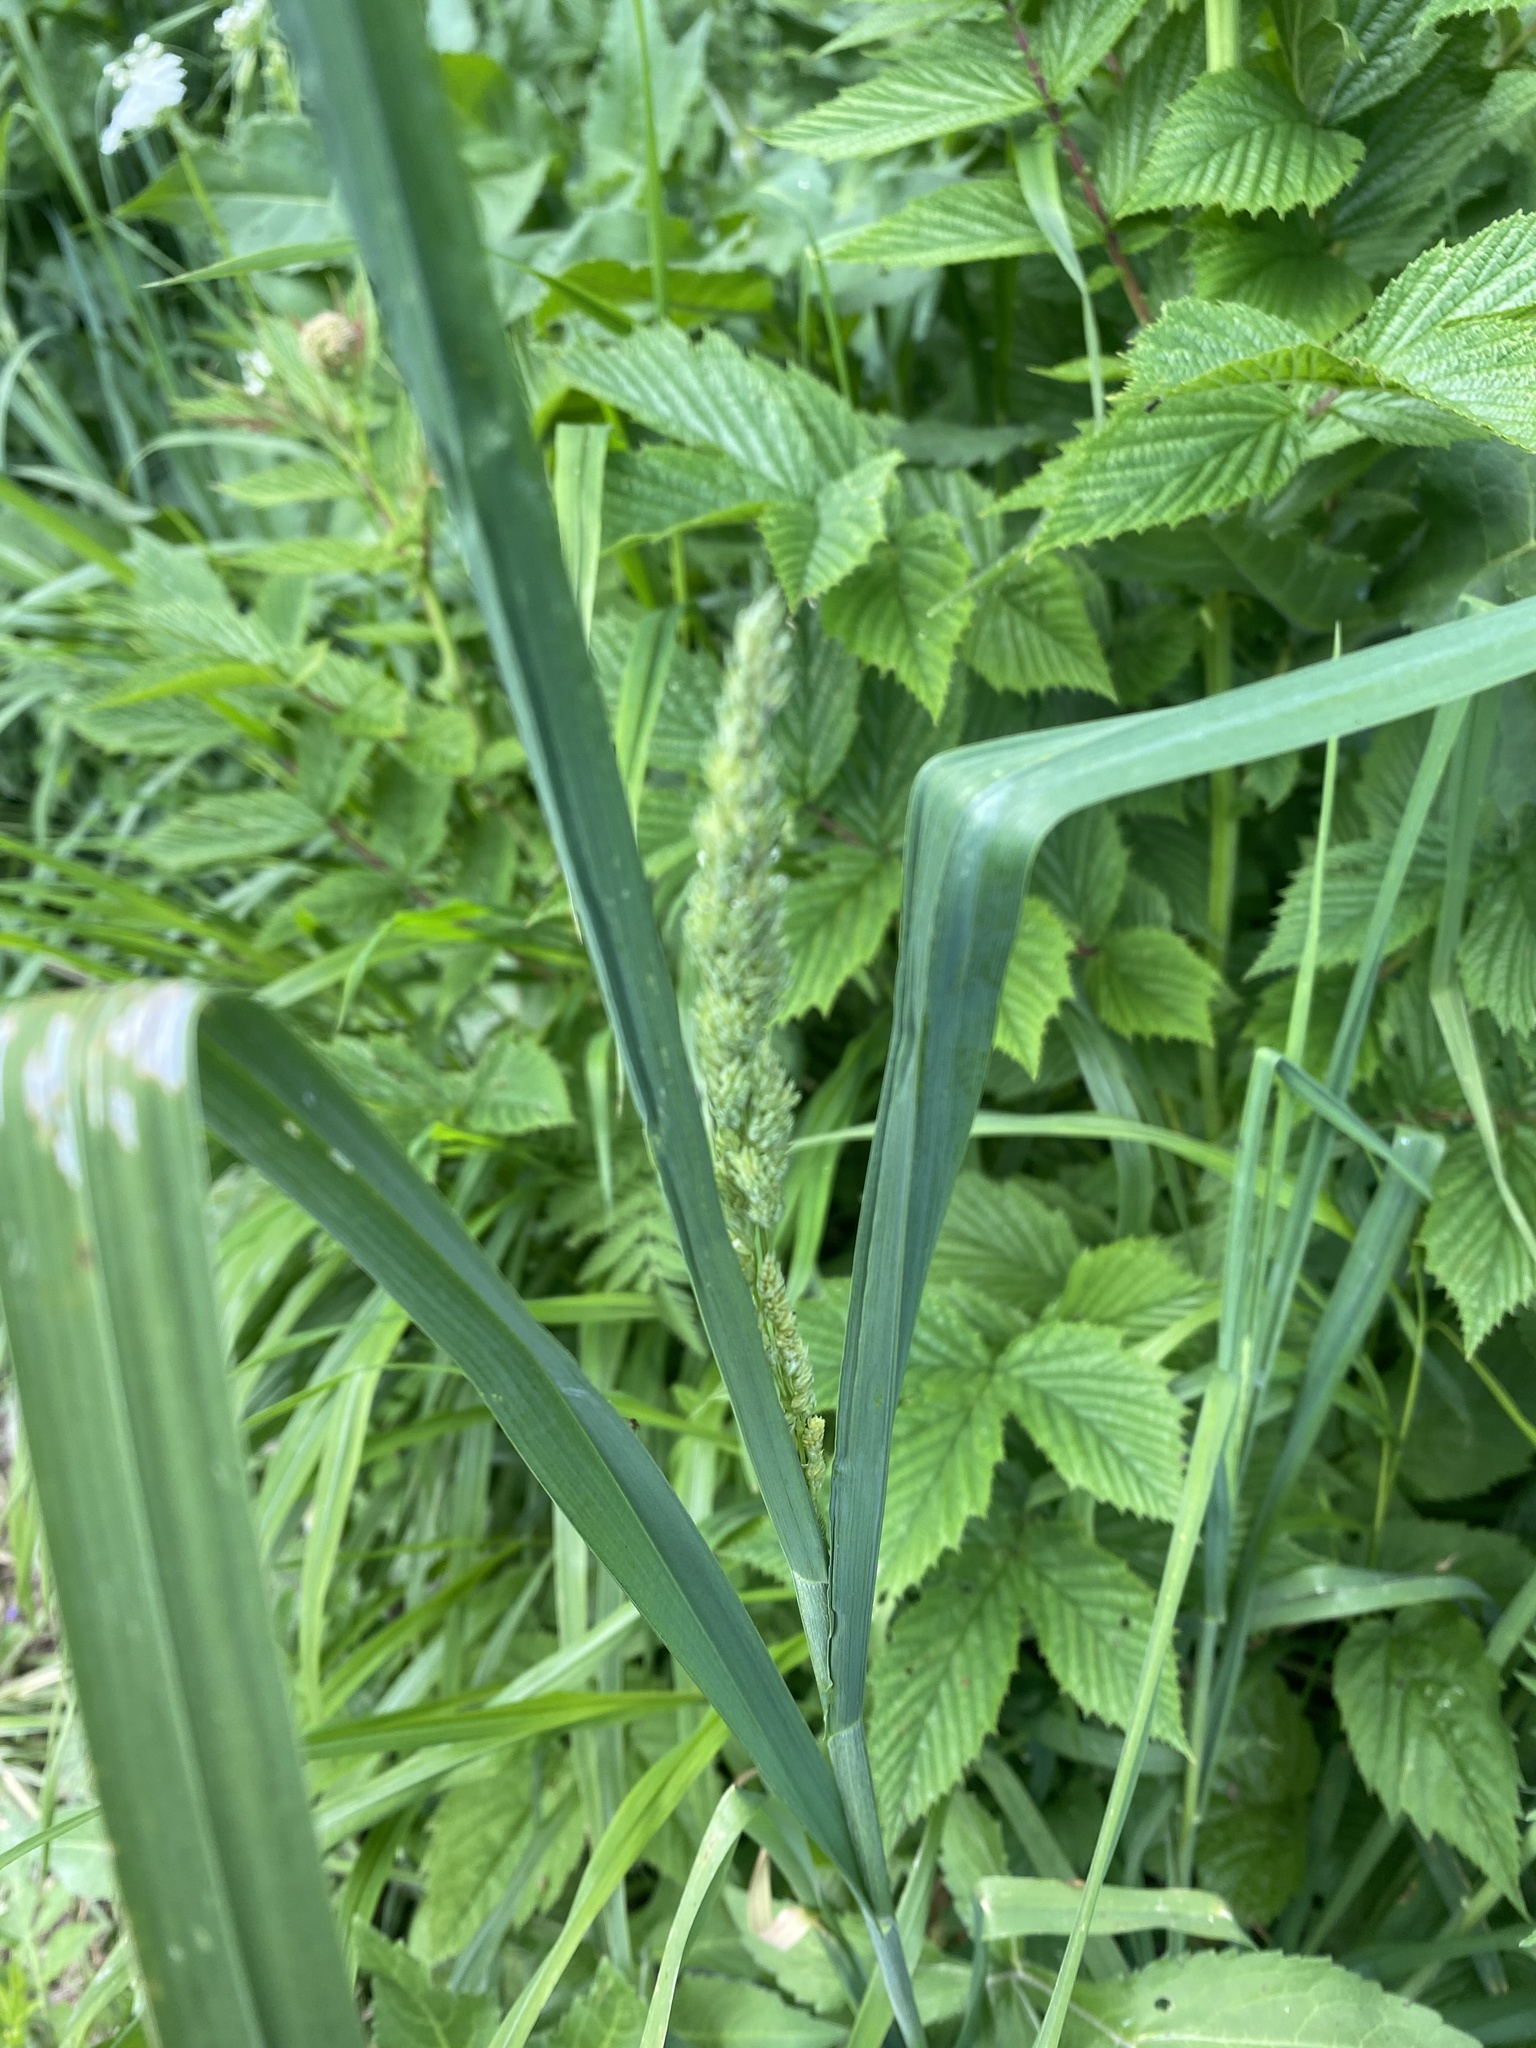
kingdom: Plantae
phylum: Tracheophyta
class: Liliopsida
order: Poales
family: Poaceae
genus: Dactylis
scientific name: Dactylis glomerata
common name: Orchardgrass
